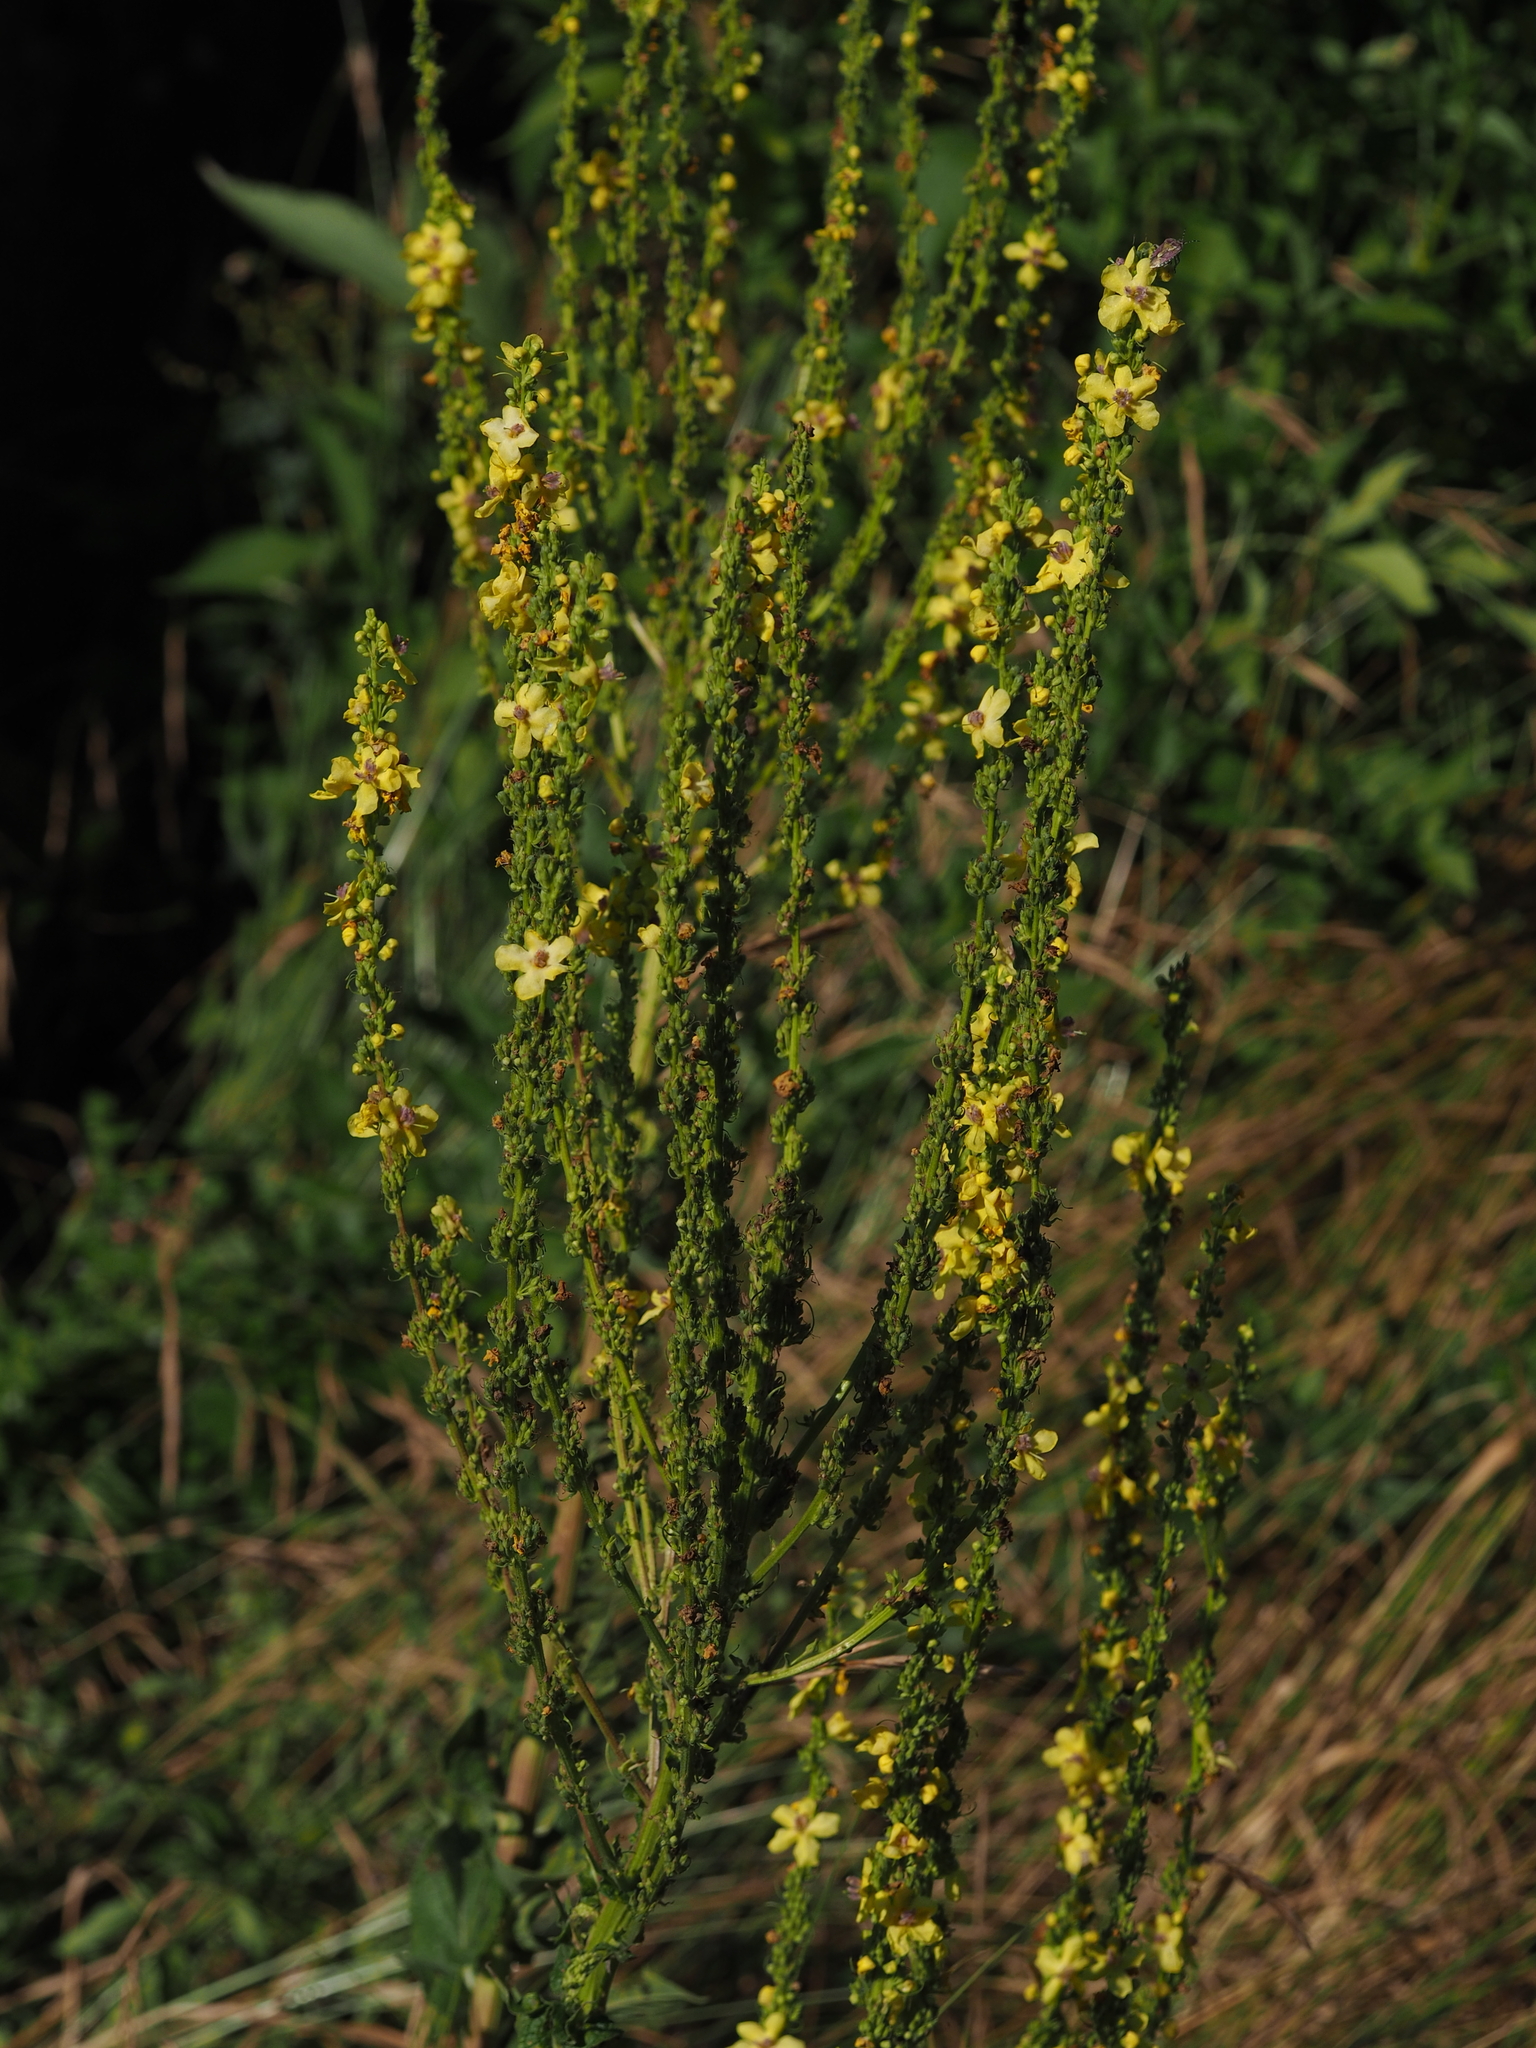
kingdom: Plantae
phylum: Tracheophyta
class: Magnoliopsida
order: Lamiales
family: Scrophulariaceae
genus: Verbascum
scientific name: Verbascum chaixii
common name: Nettle-leaved mullein
